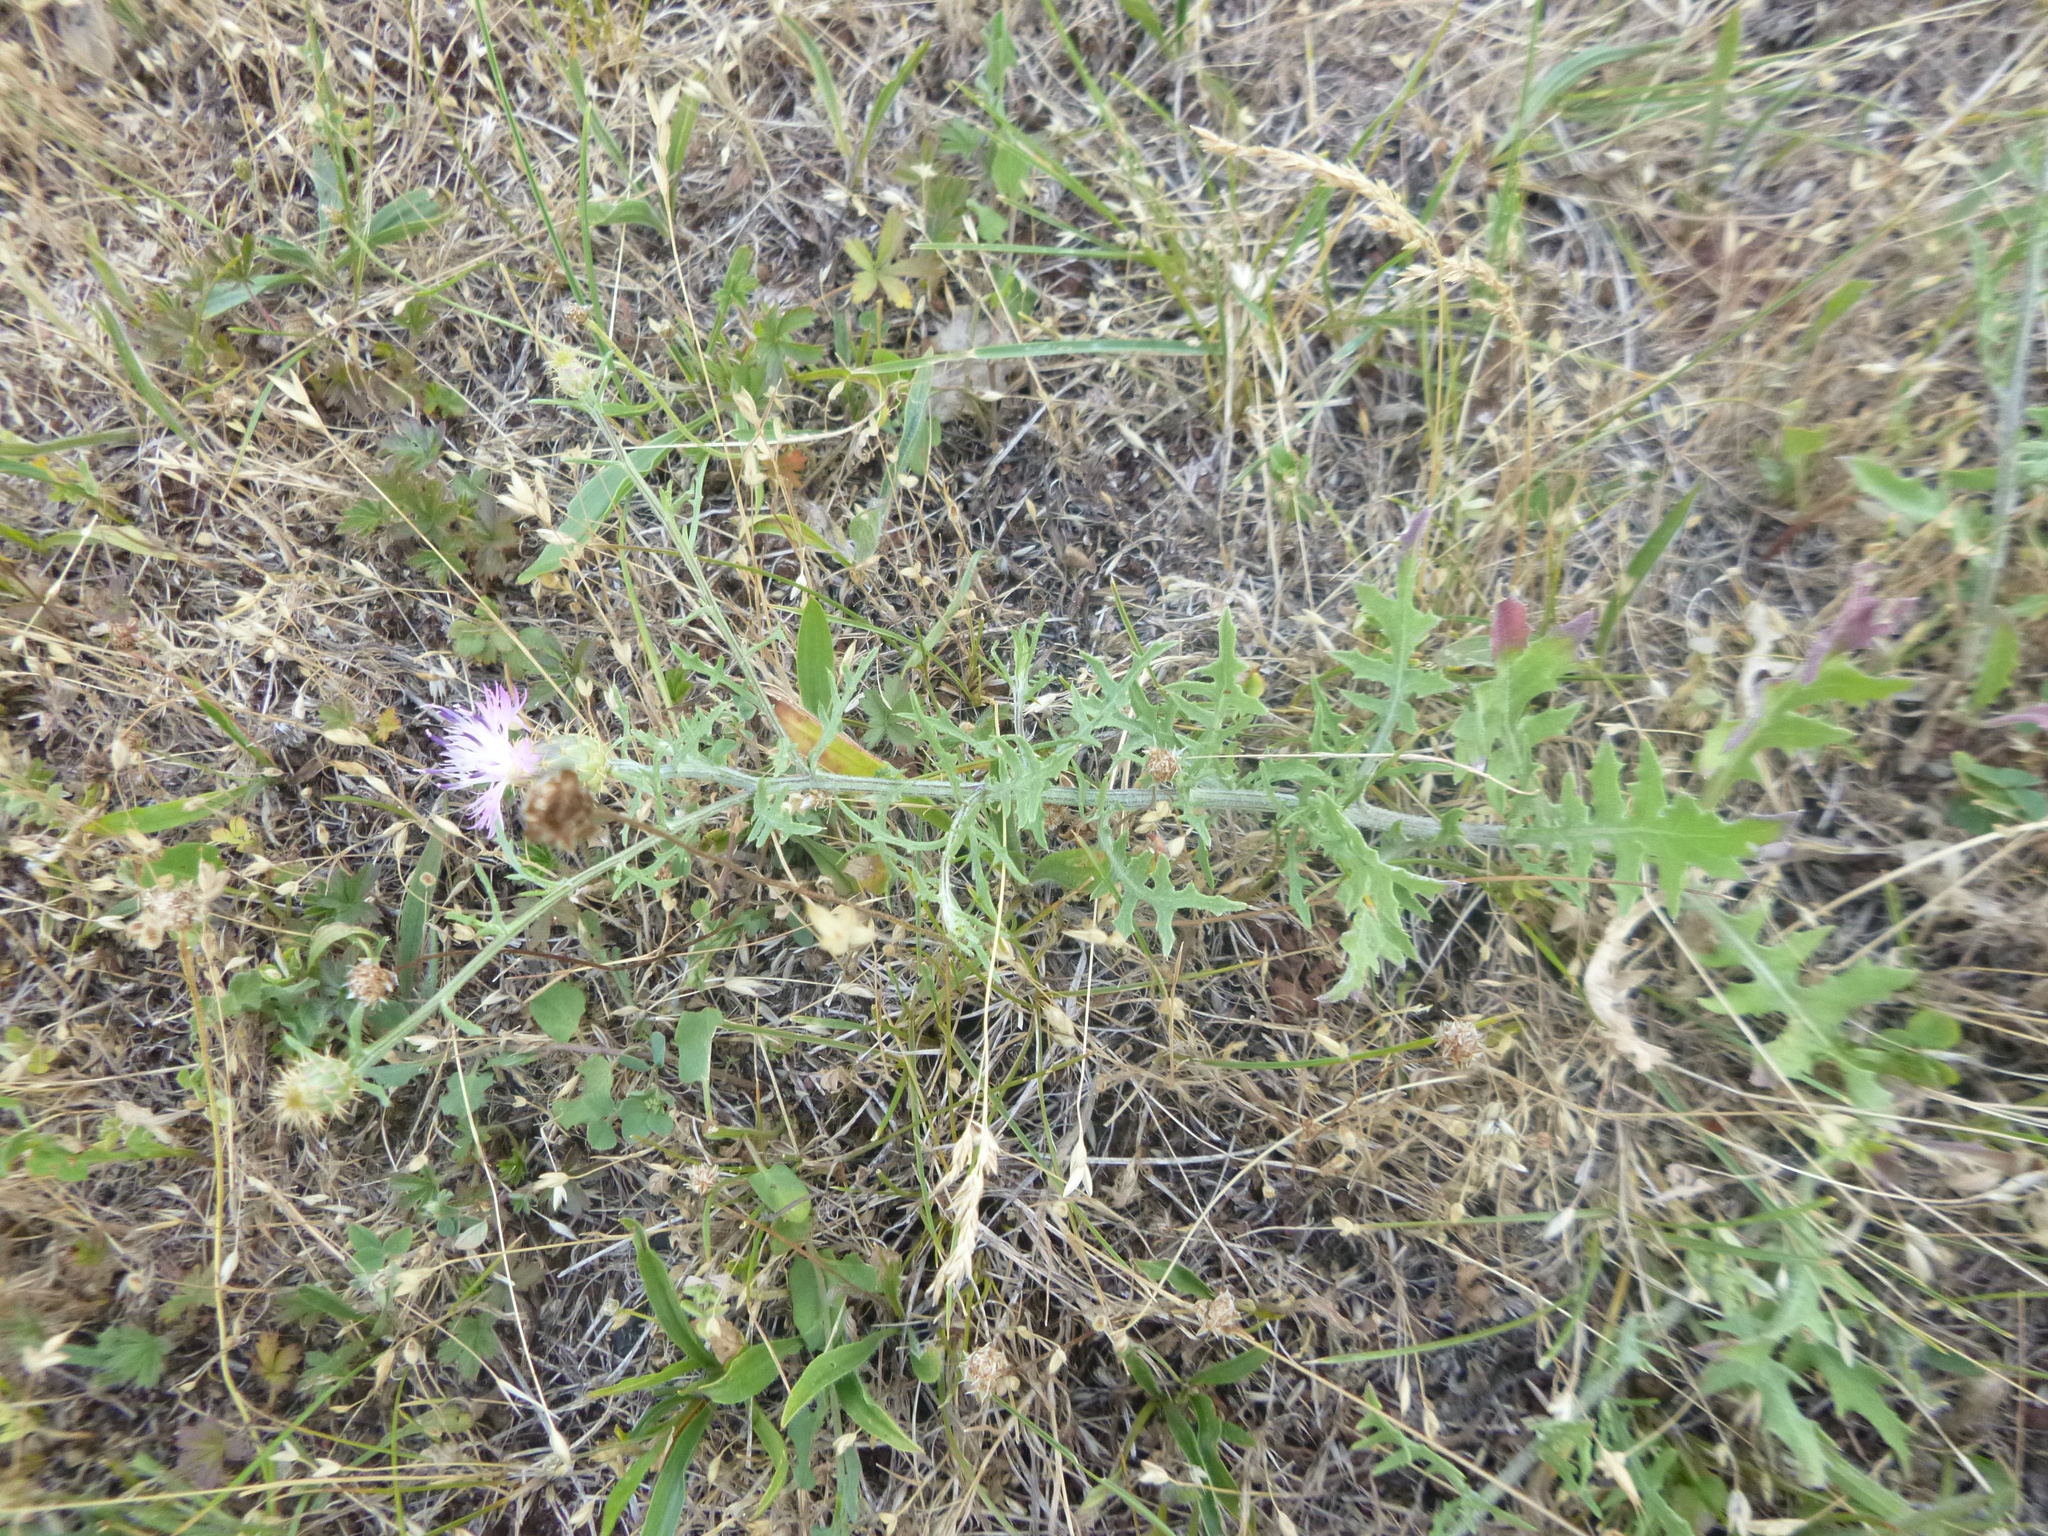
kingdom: Plantae
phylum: Tracheophyta
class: Magnoliopsida
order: Asterales
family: Asteraceae
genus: Centaurea
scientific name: Centaurea aspera
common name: Rough star-thistle
